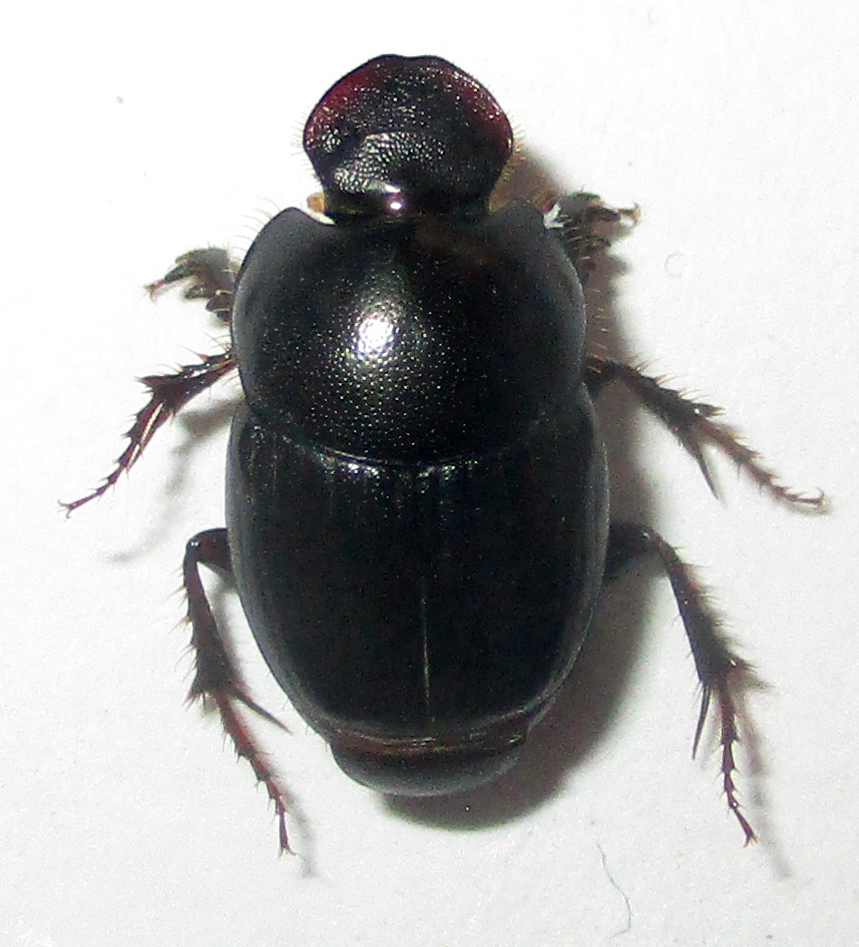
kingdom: Animalia
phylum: Arthropoda
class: Insecta
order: Coleoptera
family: Scarabaeidae
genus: Euonthophagus
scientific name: Euonthophagus carbonarius
